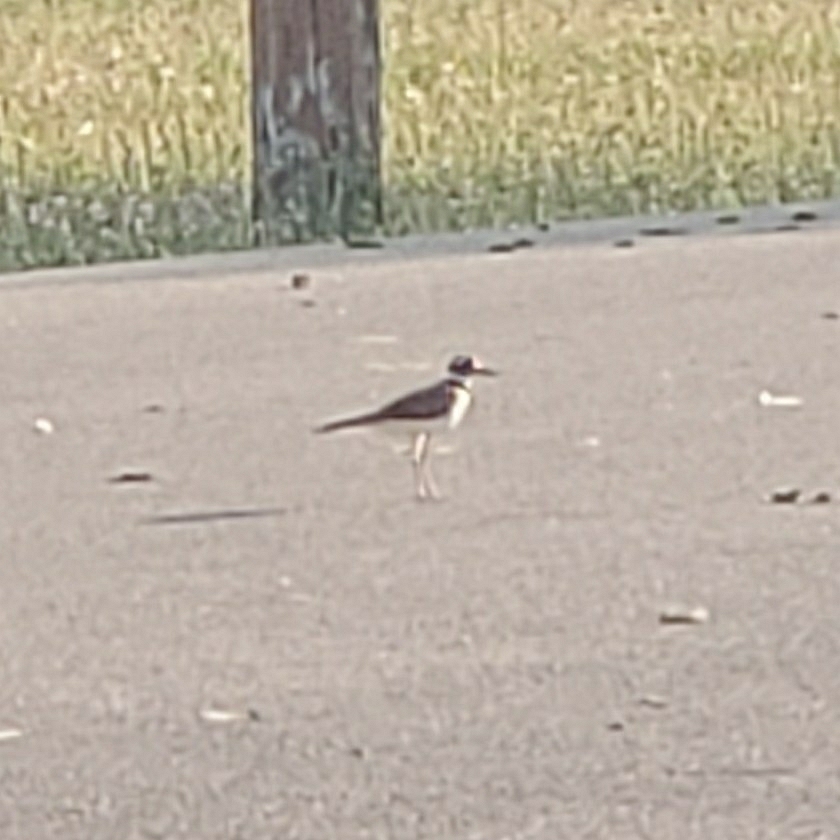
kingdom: Animalia
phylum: Chordata
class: Aves
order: Charadriiformes
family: Charadriidae
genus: Charadrius
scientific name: Charadrius vociferus
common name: Killdeer
